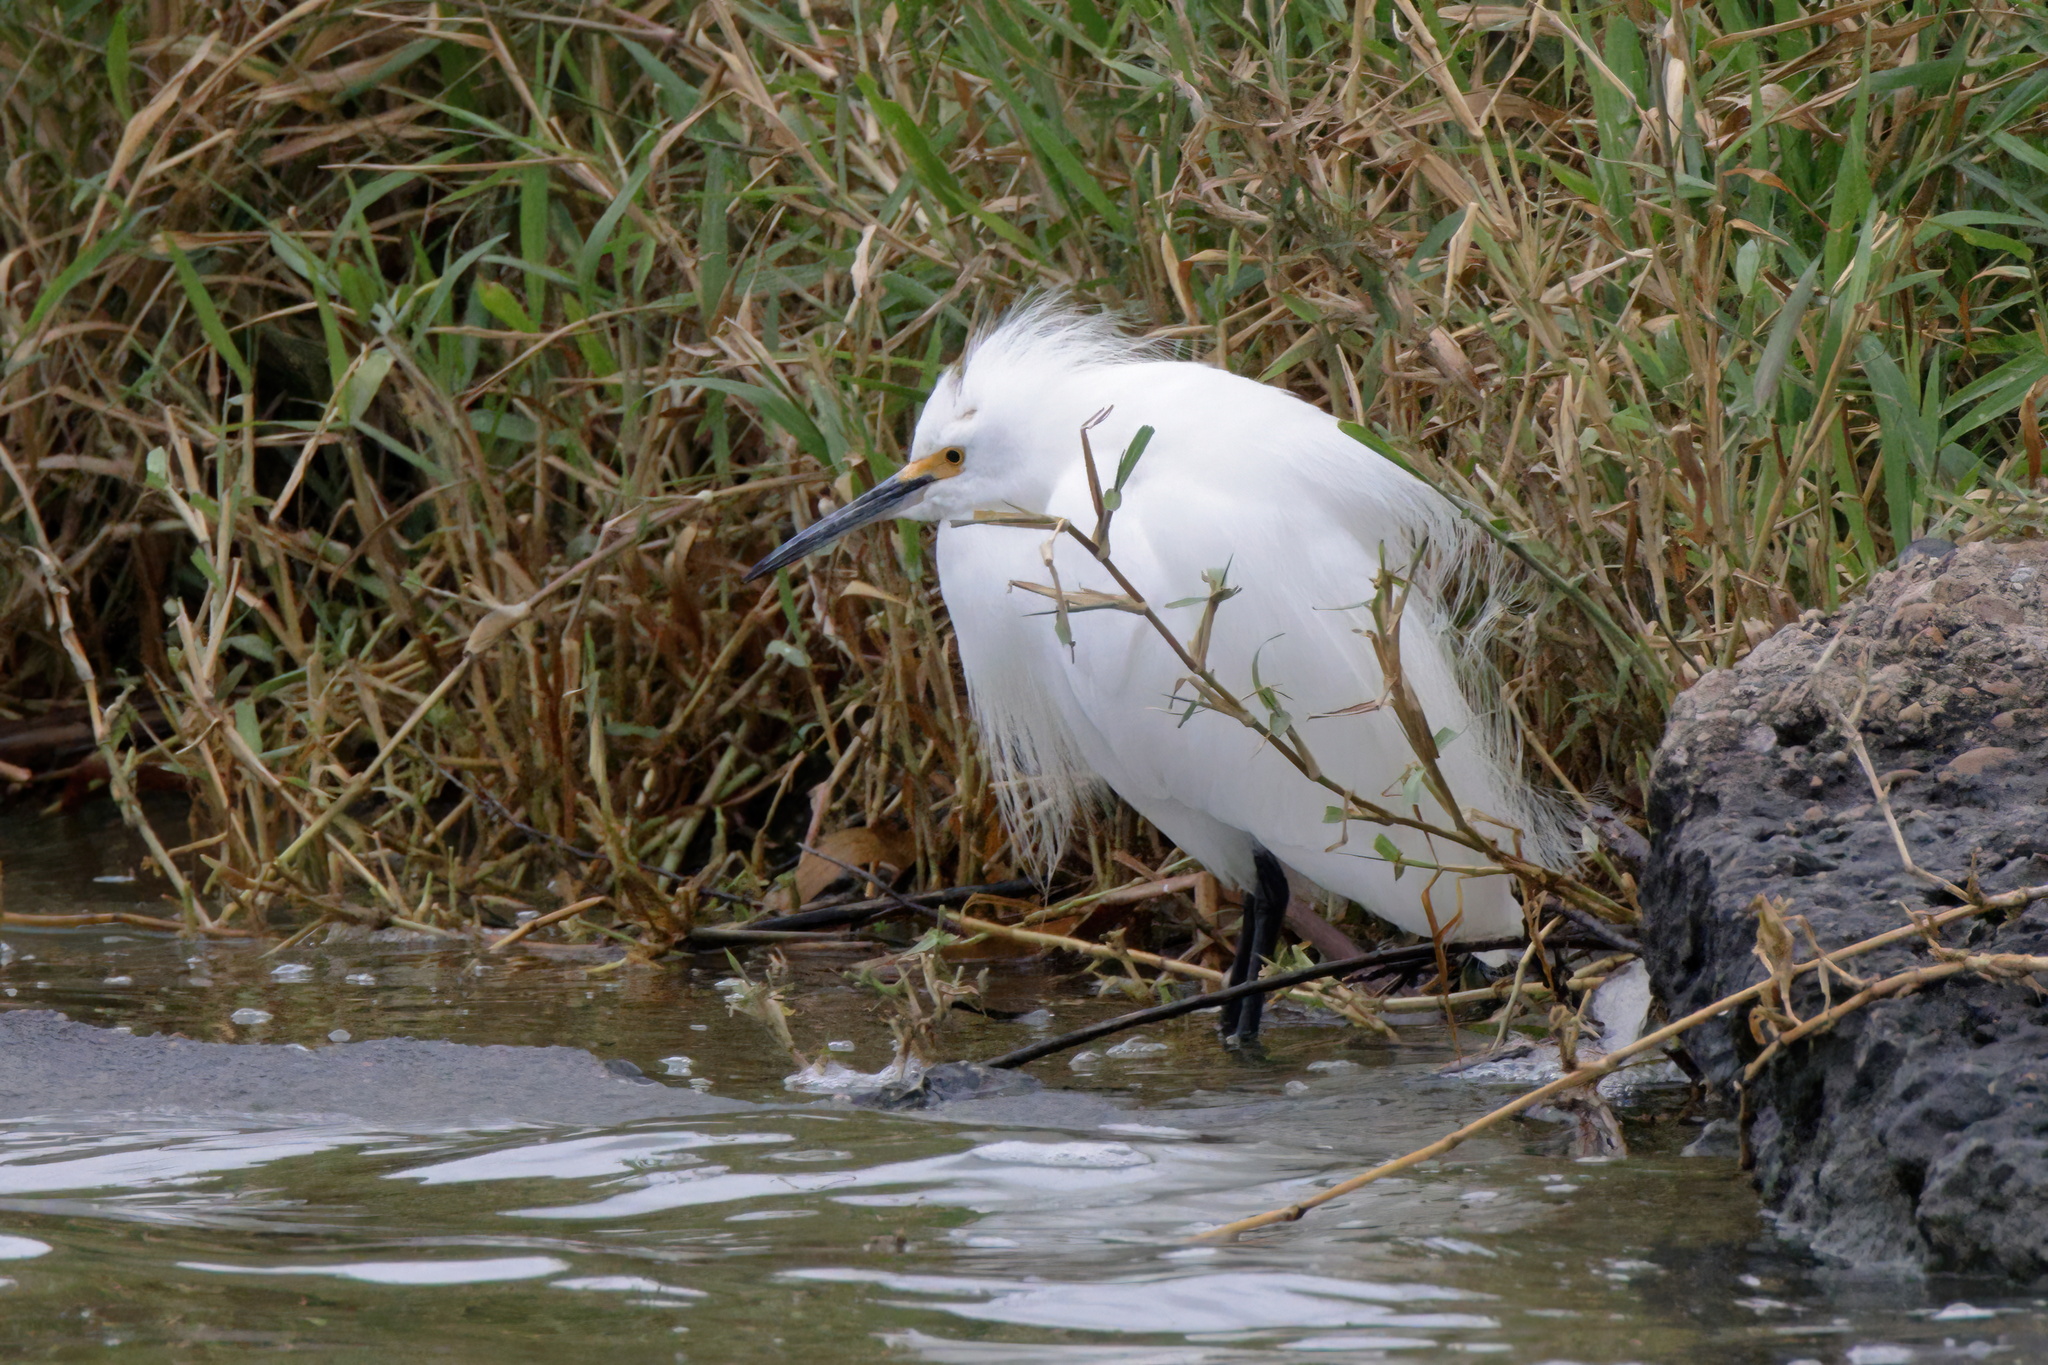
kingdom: Animalia
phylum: Chordata
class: Aves
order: Pelecaniformes
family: Ardeidae
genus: Egretta
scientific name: Egretta thula
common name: Snowy egret
